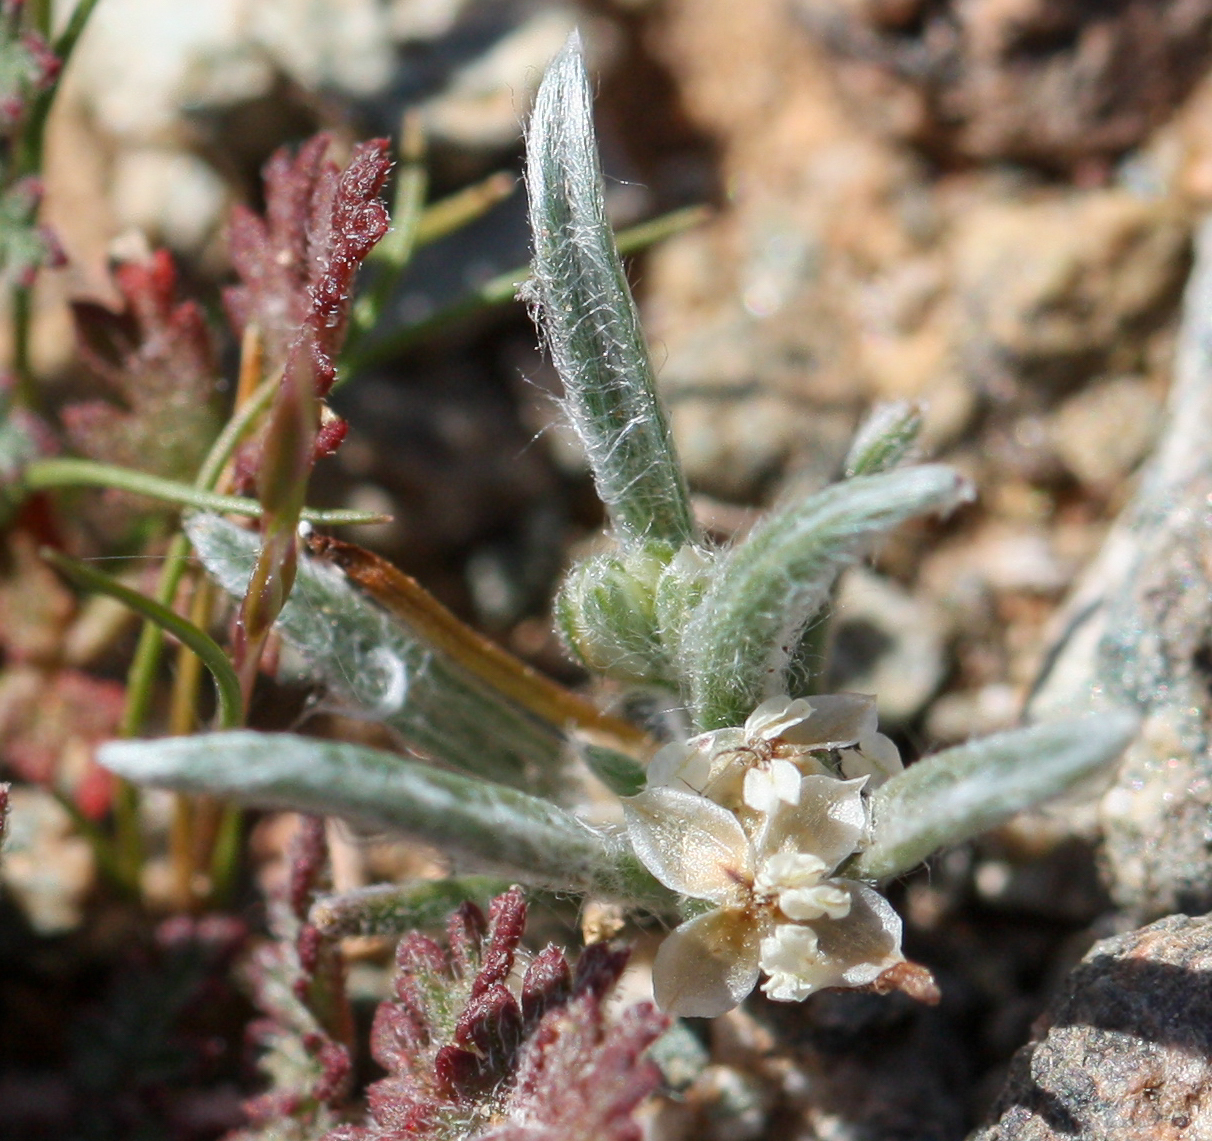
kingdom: Plantae
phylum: Tracheophyta
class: Magnoliopsida
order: Lamiales
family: Plantaginaceae
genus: Plantago
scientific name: Plantago ovata
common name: Blond plantain
